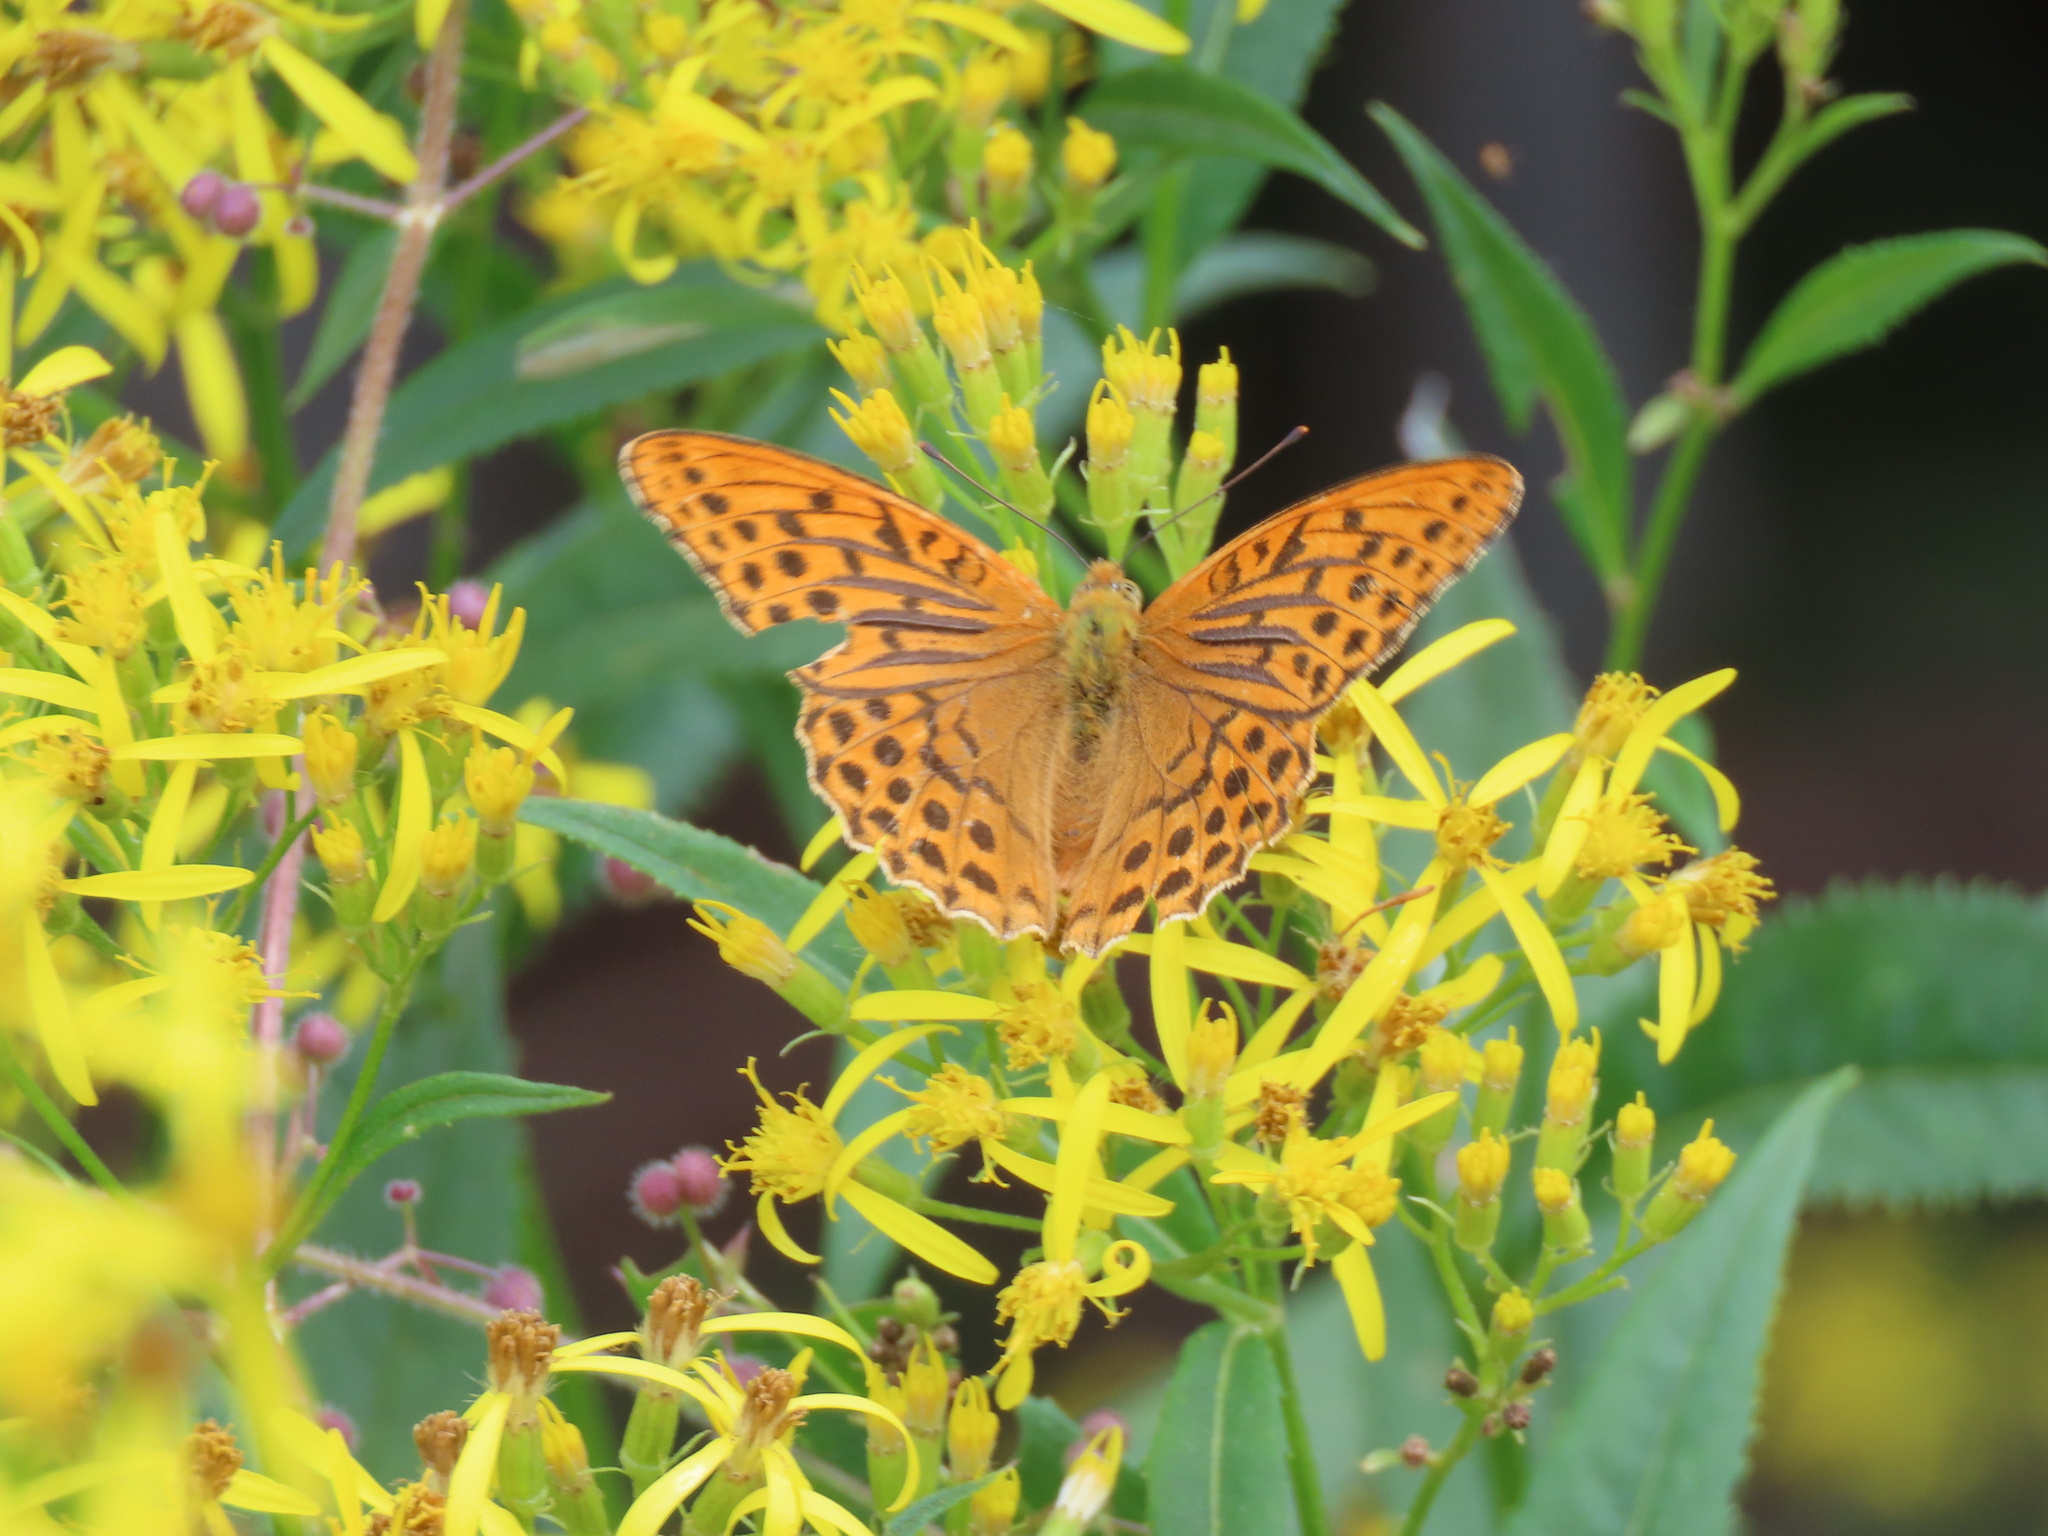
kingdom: Animalia
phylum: Arthropoda
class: Insecta
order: Lepidoptera
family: Nymphalidae
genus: Argynnis
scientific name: Argynnis paphia
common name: Silver-washed fritillary
